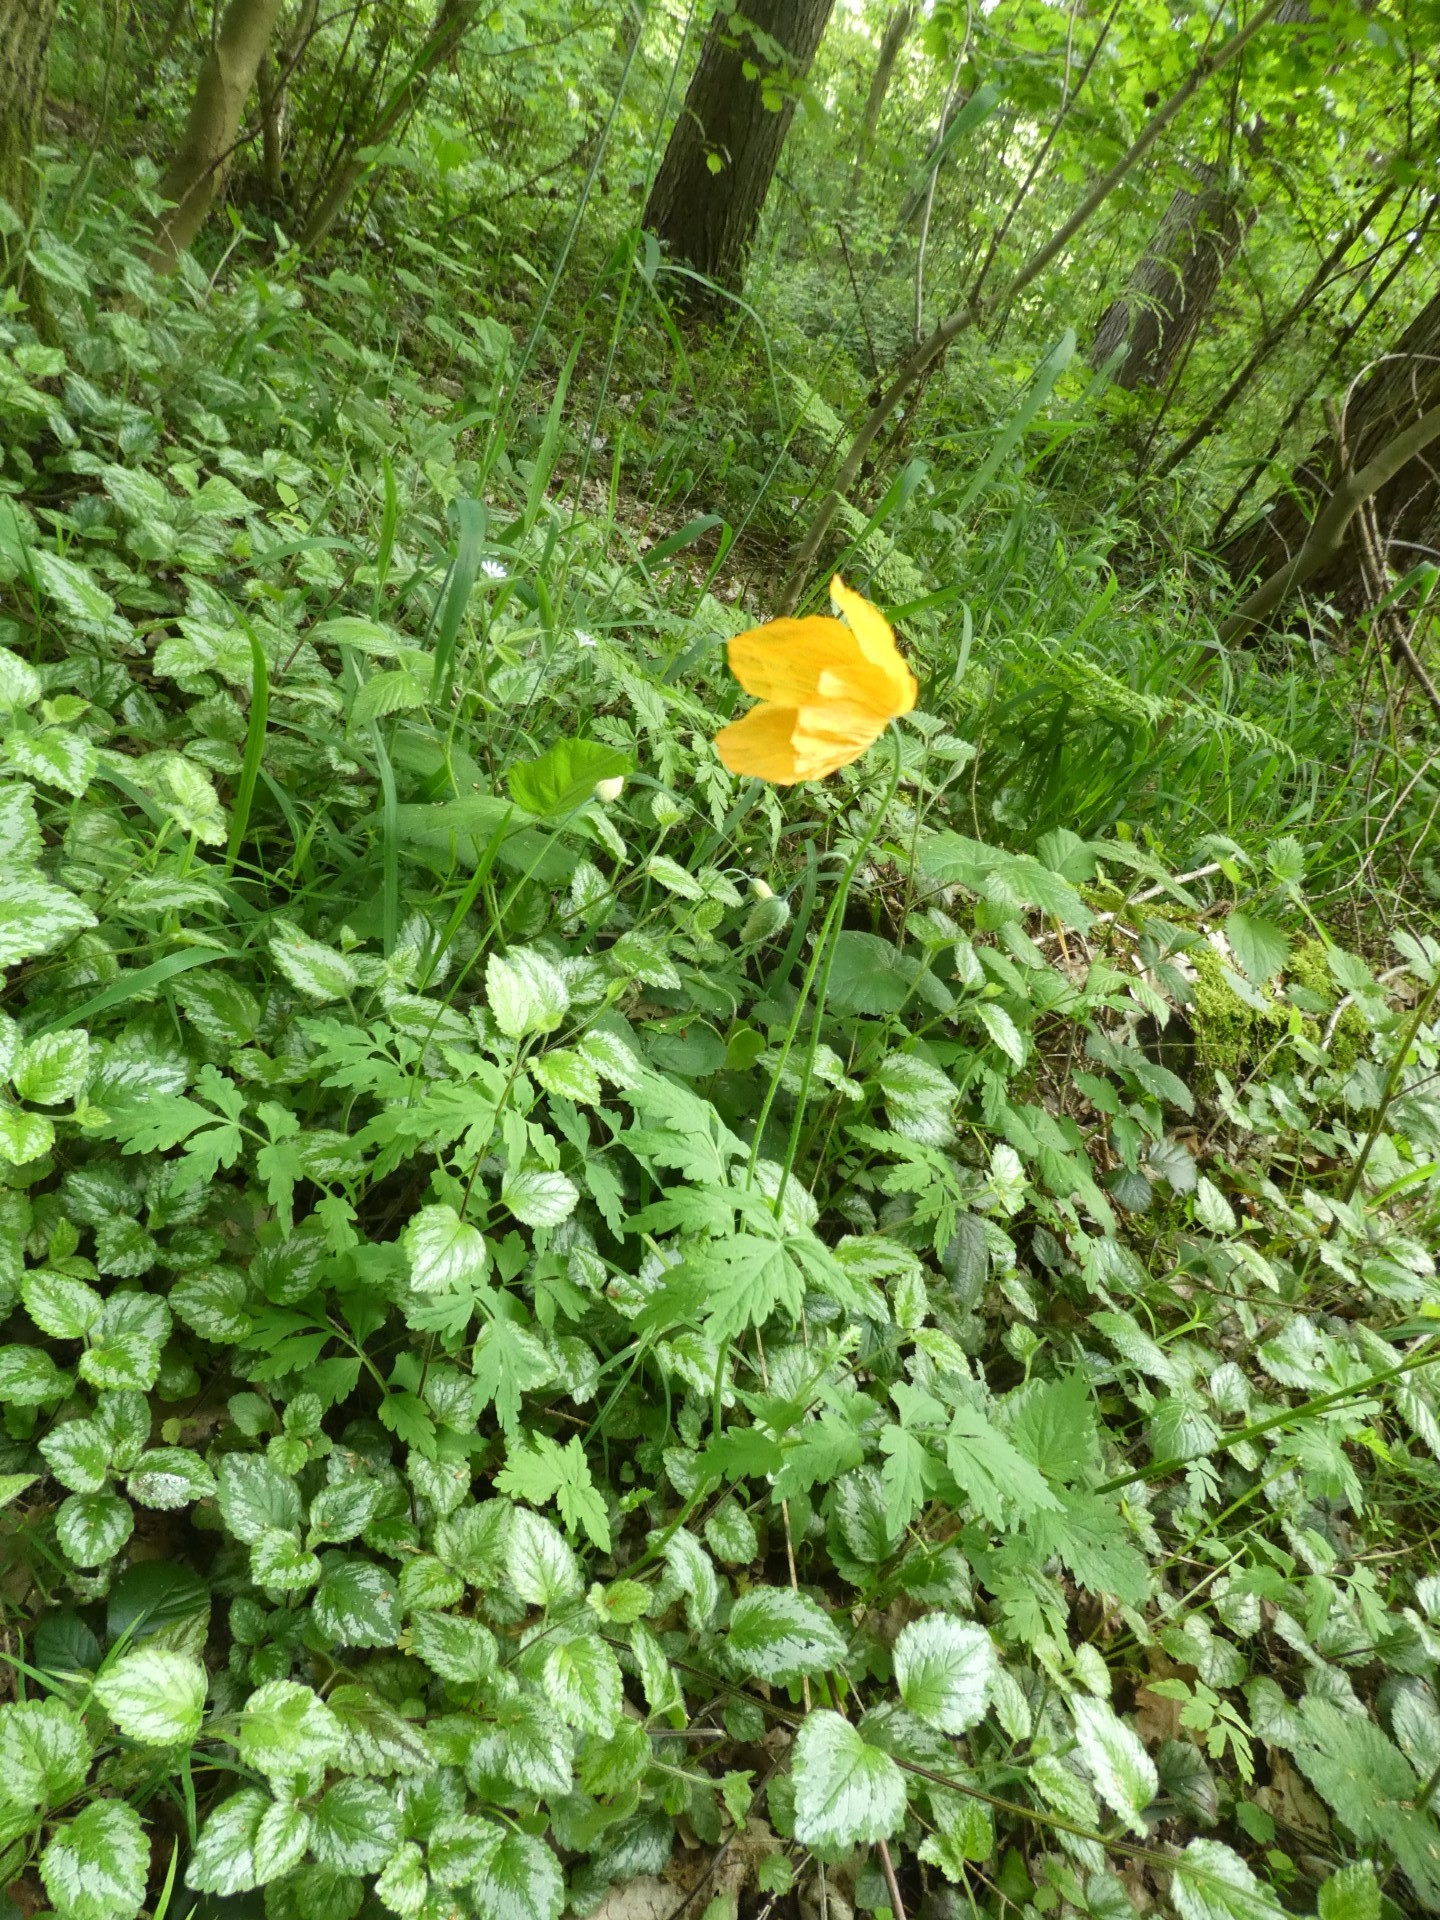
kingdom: Plantae
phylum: Tracheophyta
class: Magnoliopsida
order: Ranunculales
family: Papaveraceae
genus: Papaver
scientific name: Papaver cambricum
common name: Poppy
